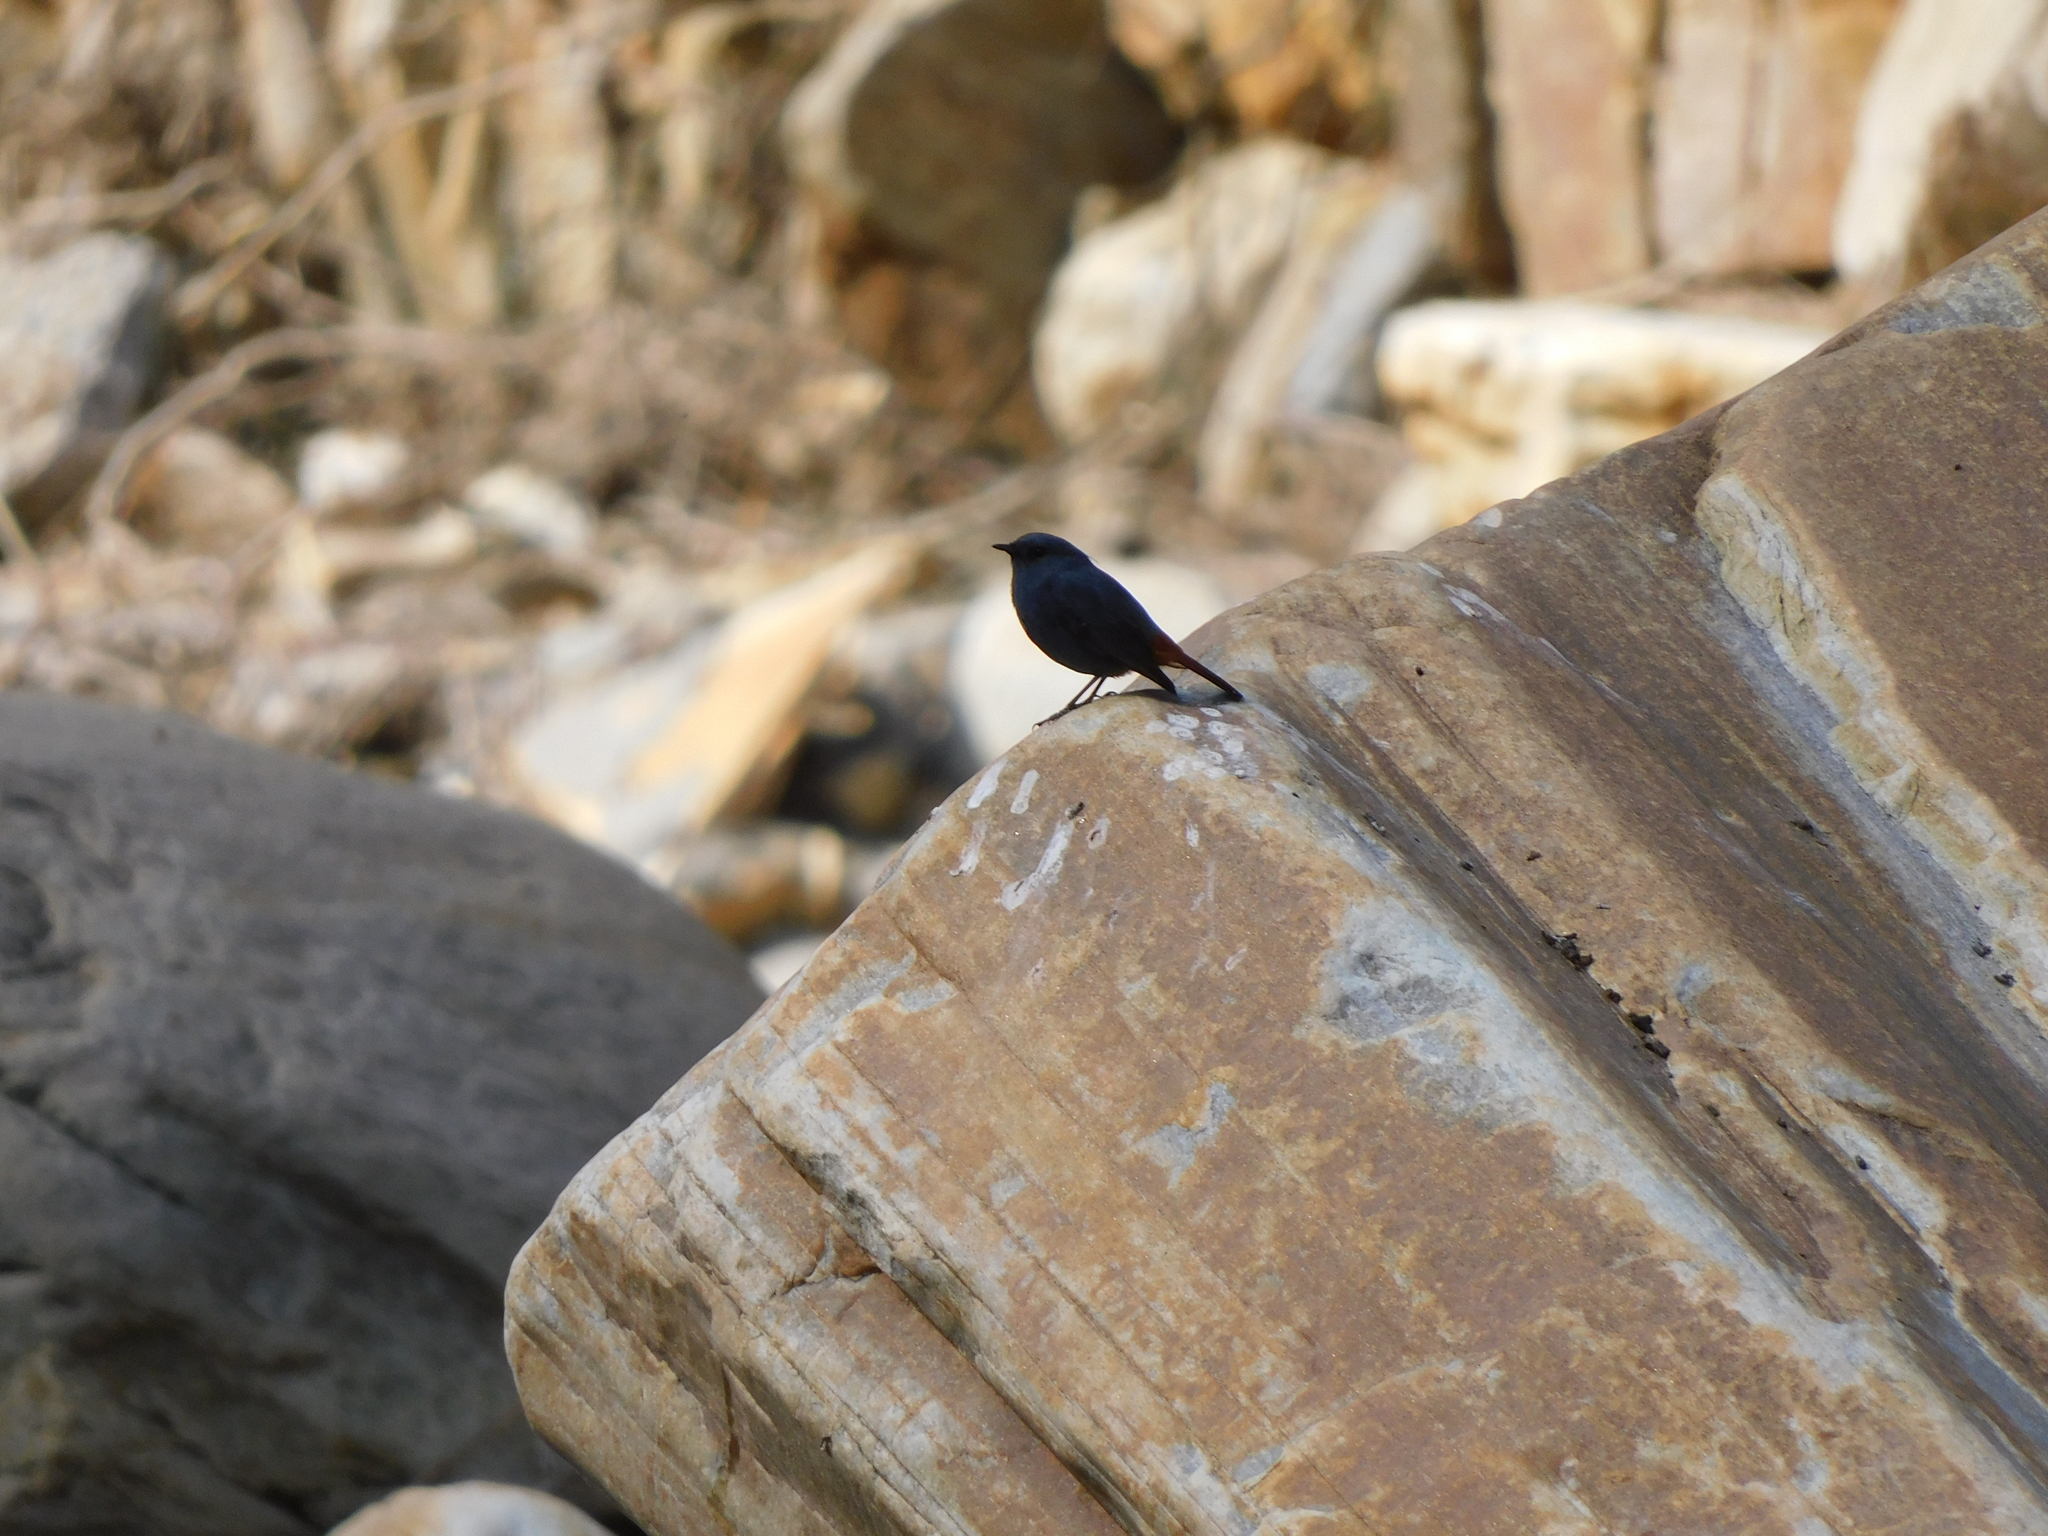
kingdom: Animalia
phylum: Chordata
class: Aves
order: Passeriformes
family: Muscicapidae
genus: Phoenicurus
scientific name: Phoenicurus fuliginosus
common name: Plumbeous water redstart
